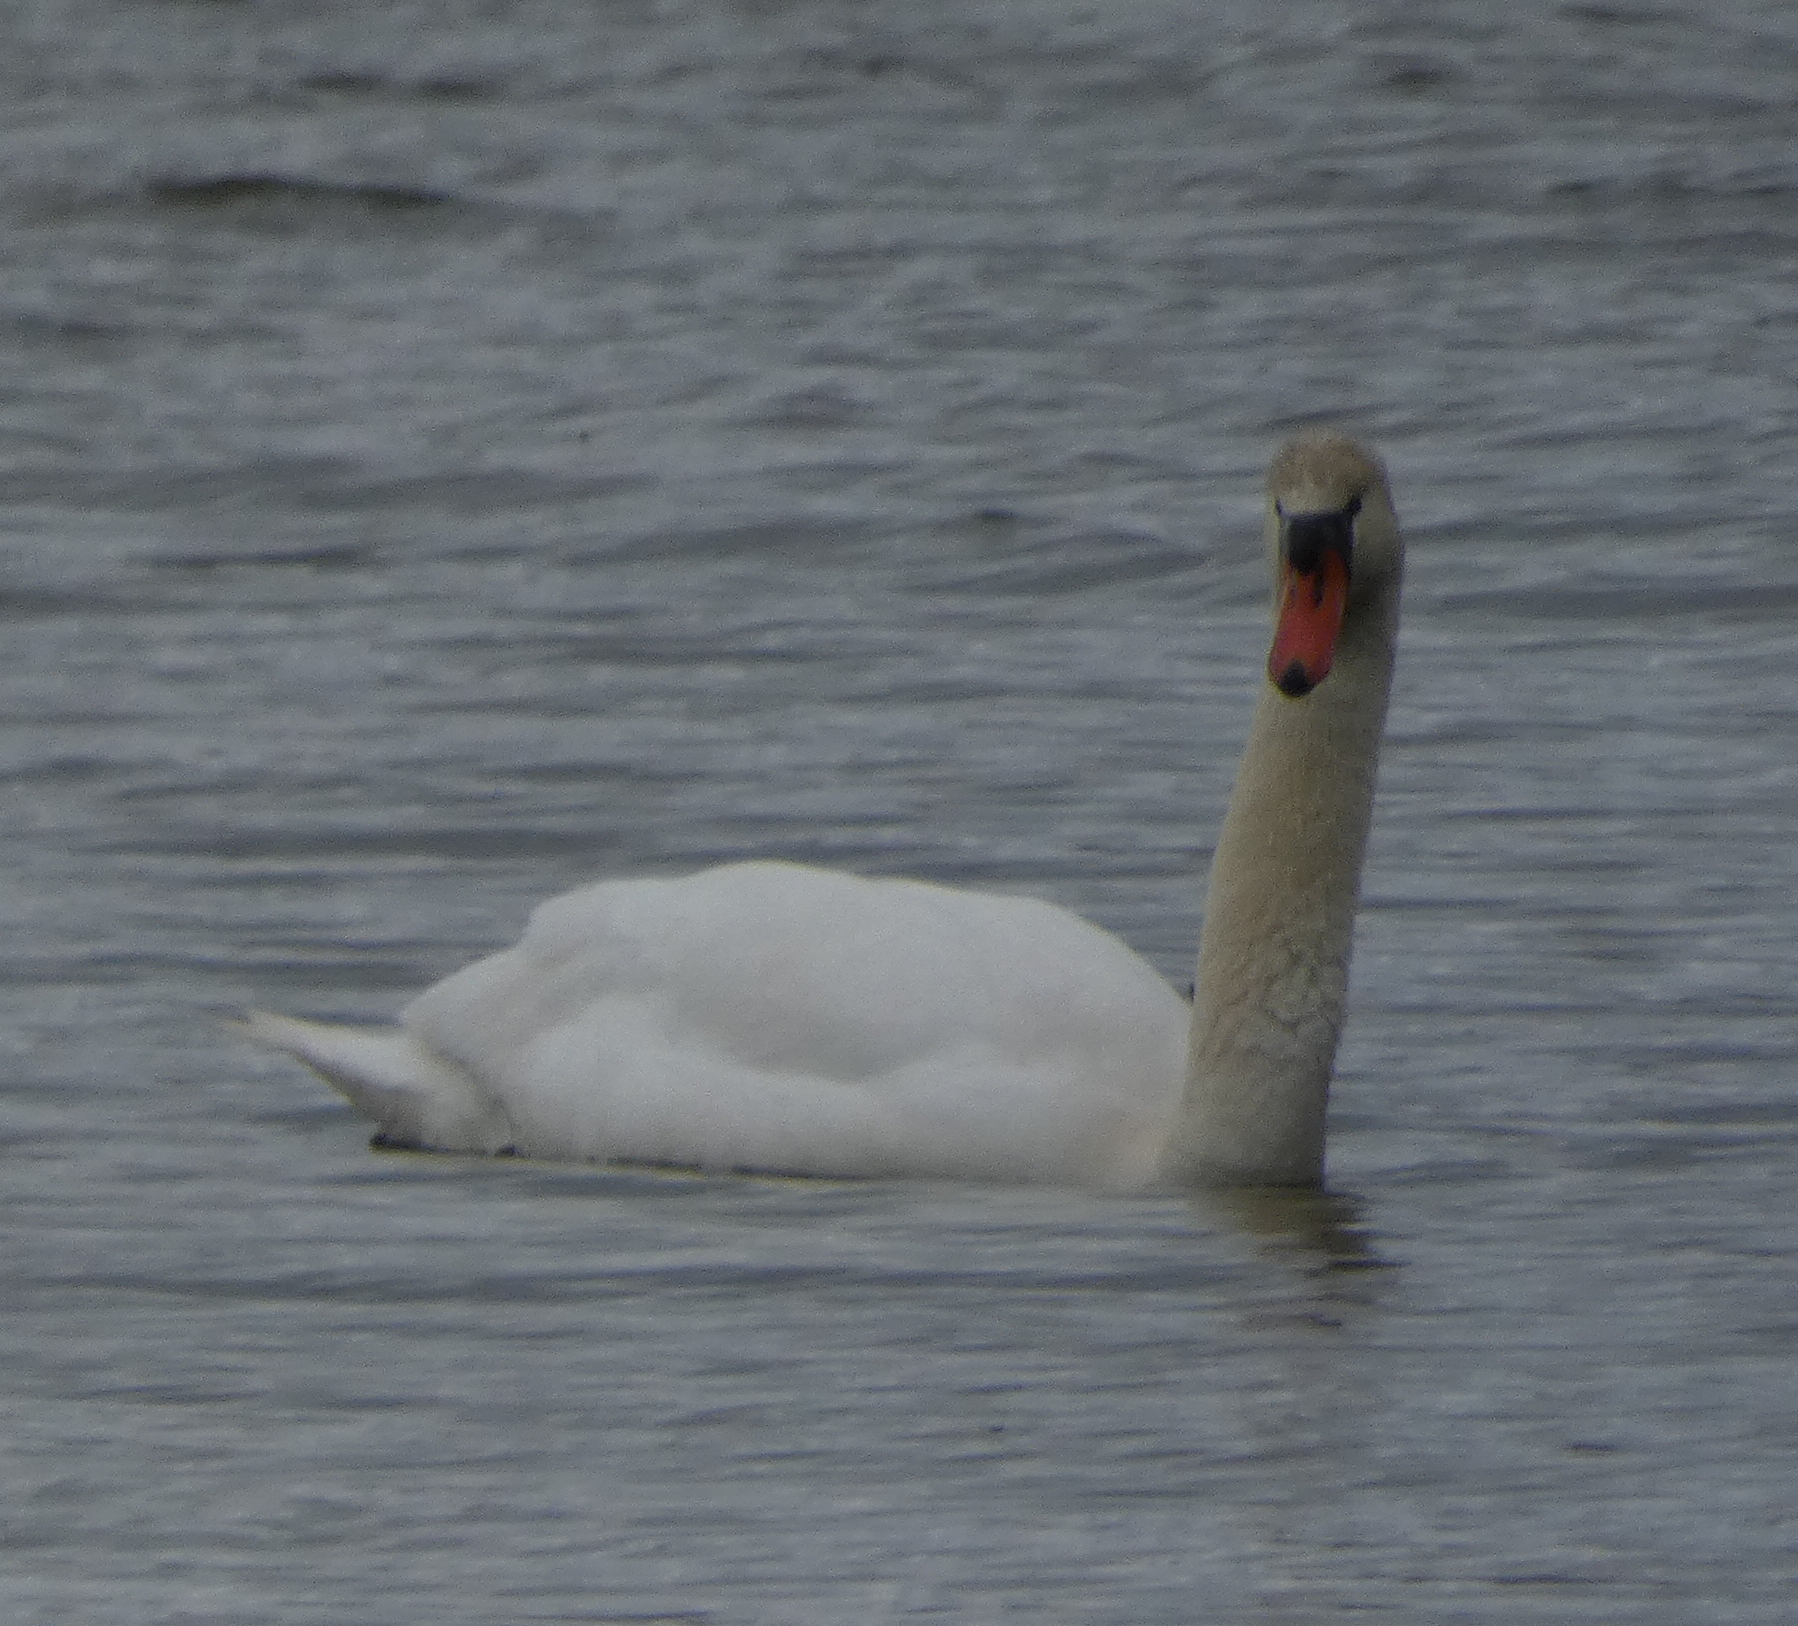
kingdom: Animalia
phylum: Chordata
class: Aves
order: Anseriformes
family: Anatidae
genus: Cygnus
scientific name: Cygnus olor
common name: Mute swan
